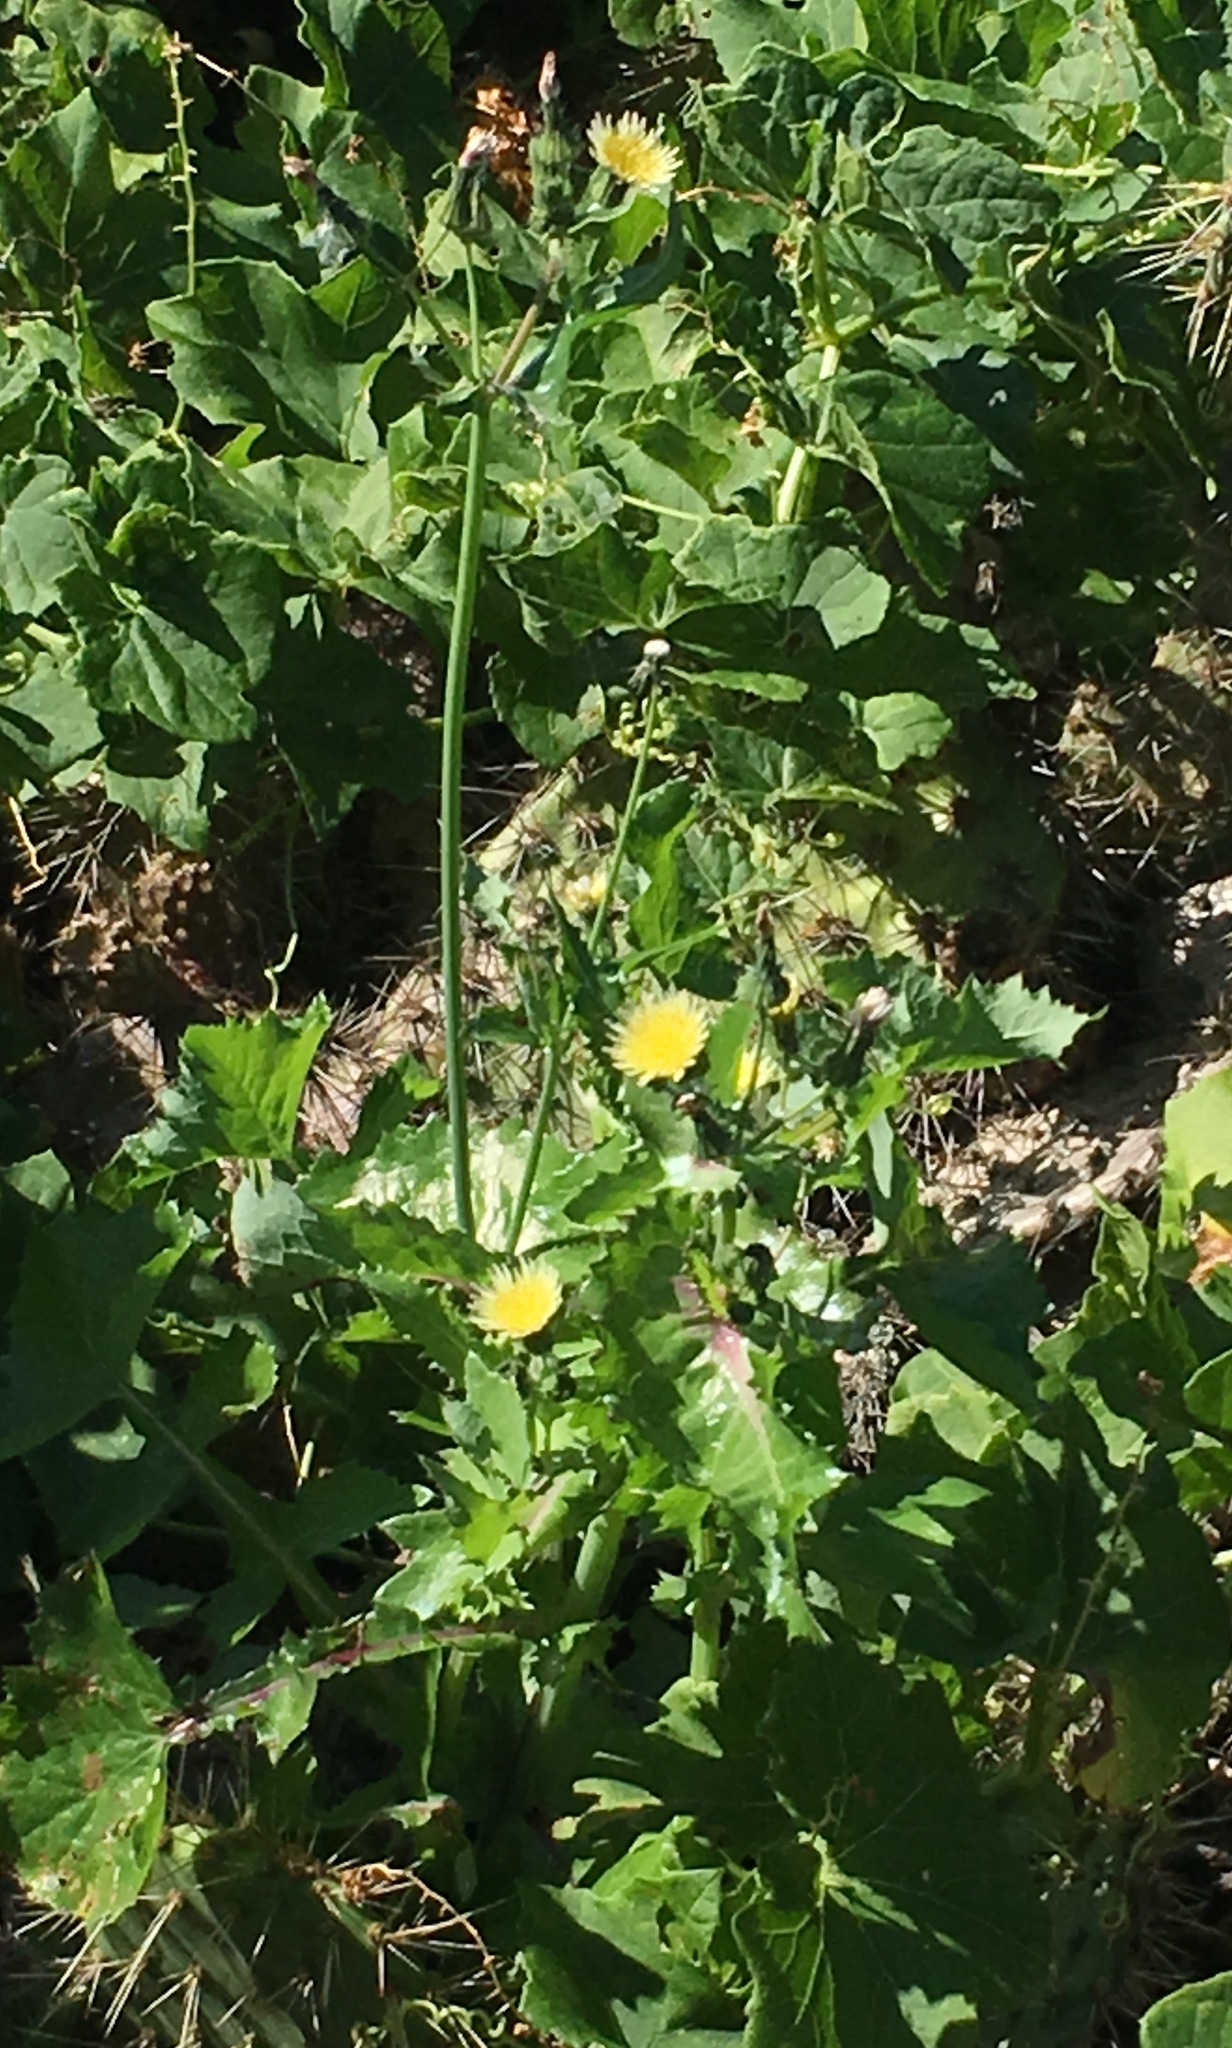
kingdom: Plantae
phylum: Tracheophyta
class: Magnoliopsida
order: Asterales
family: Asteraceae
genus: Sonchus
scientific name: Sonchus oleraceus
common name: Common sowthistle
